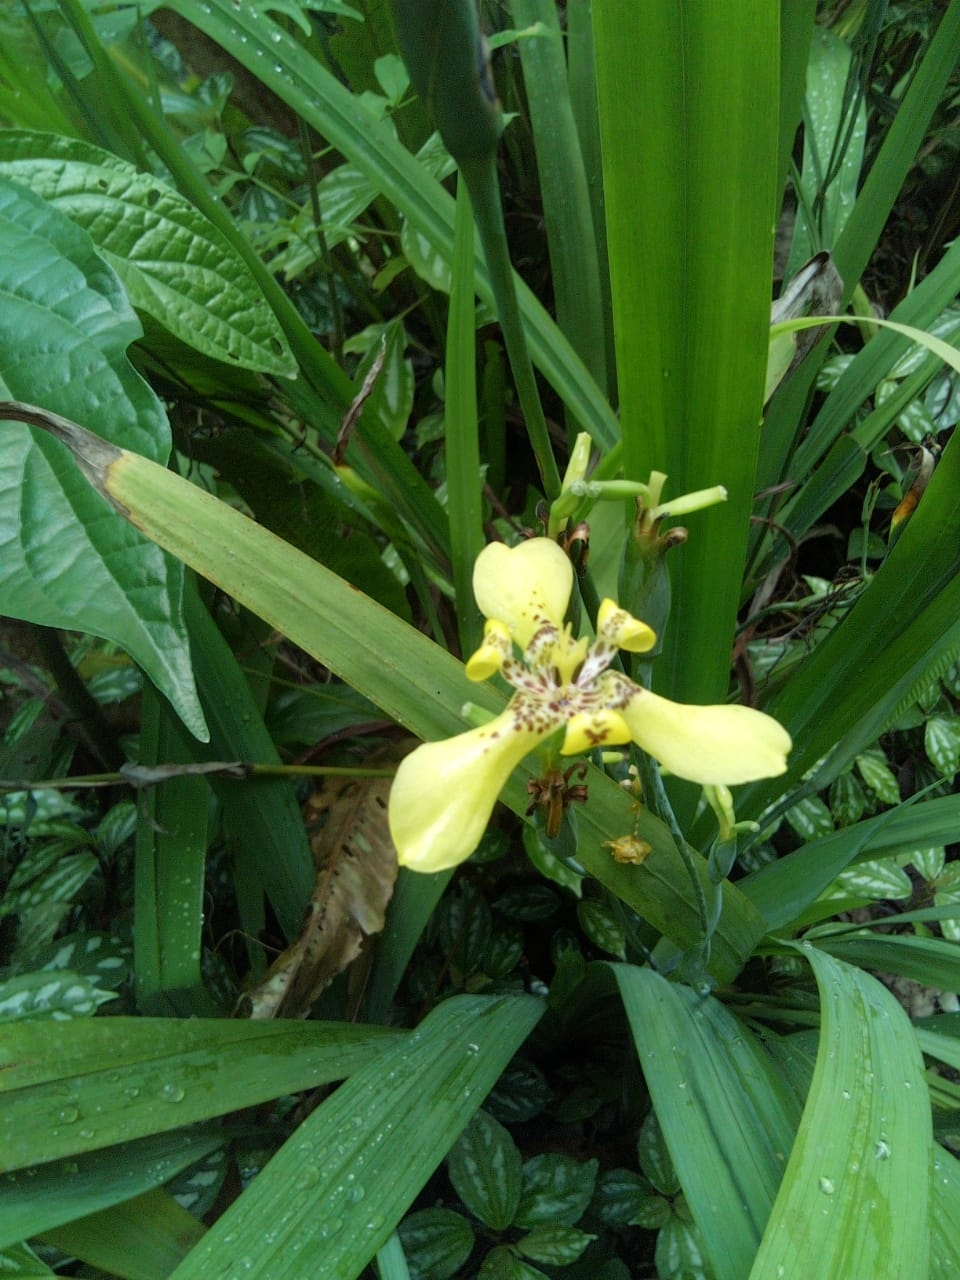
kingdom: Plantae
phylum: Tracheophyta
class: Liliopsida
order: Asparagales
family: Iridaceae
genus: Trimezia
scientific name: Trimezia steyermarkii
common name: Trimezia
